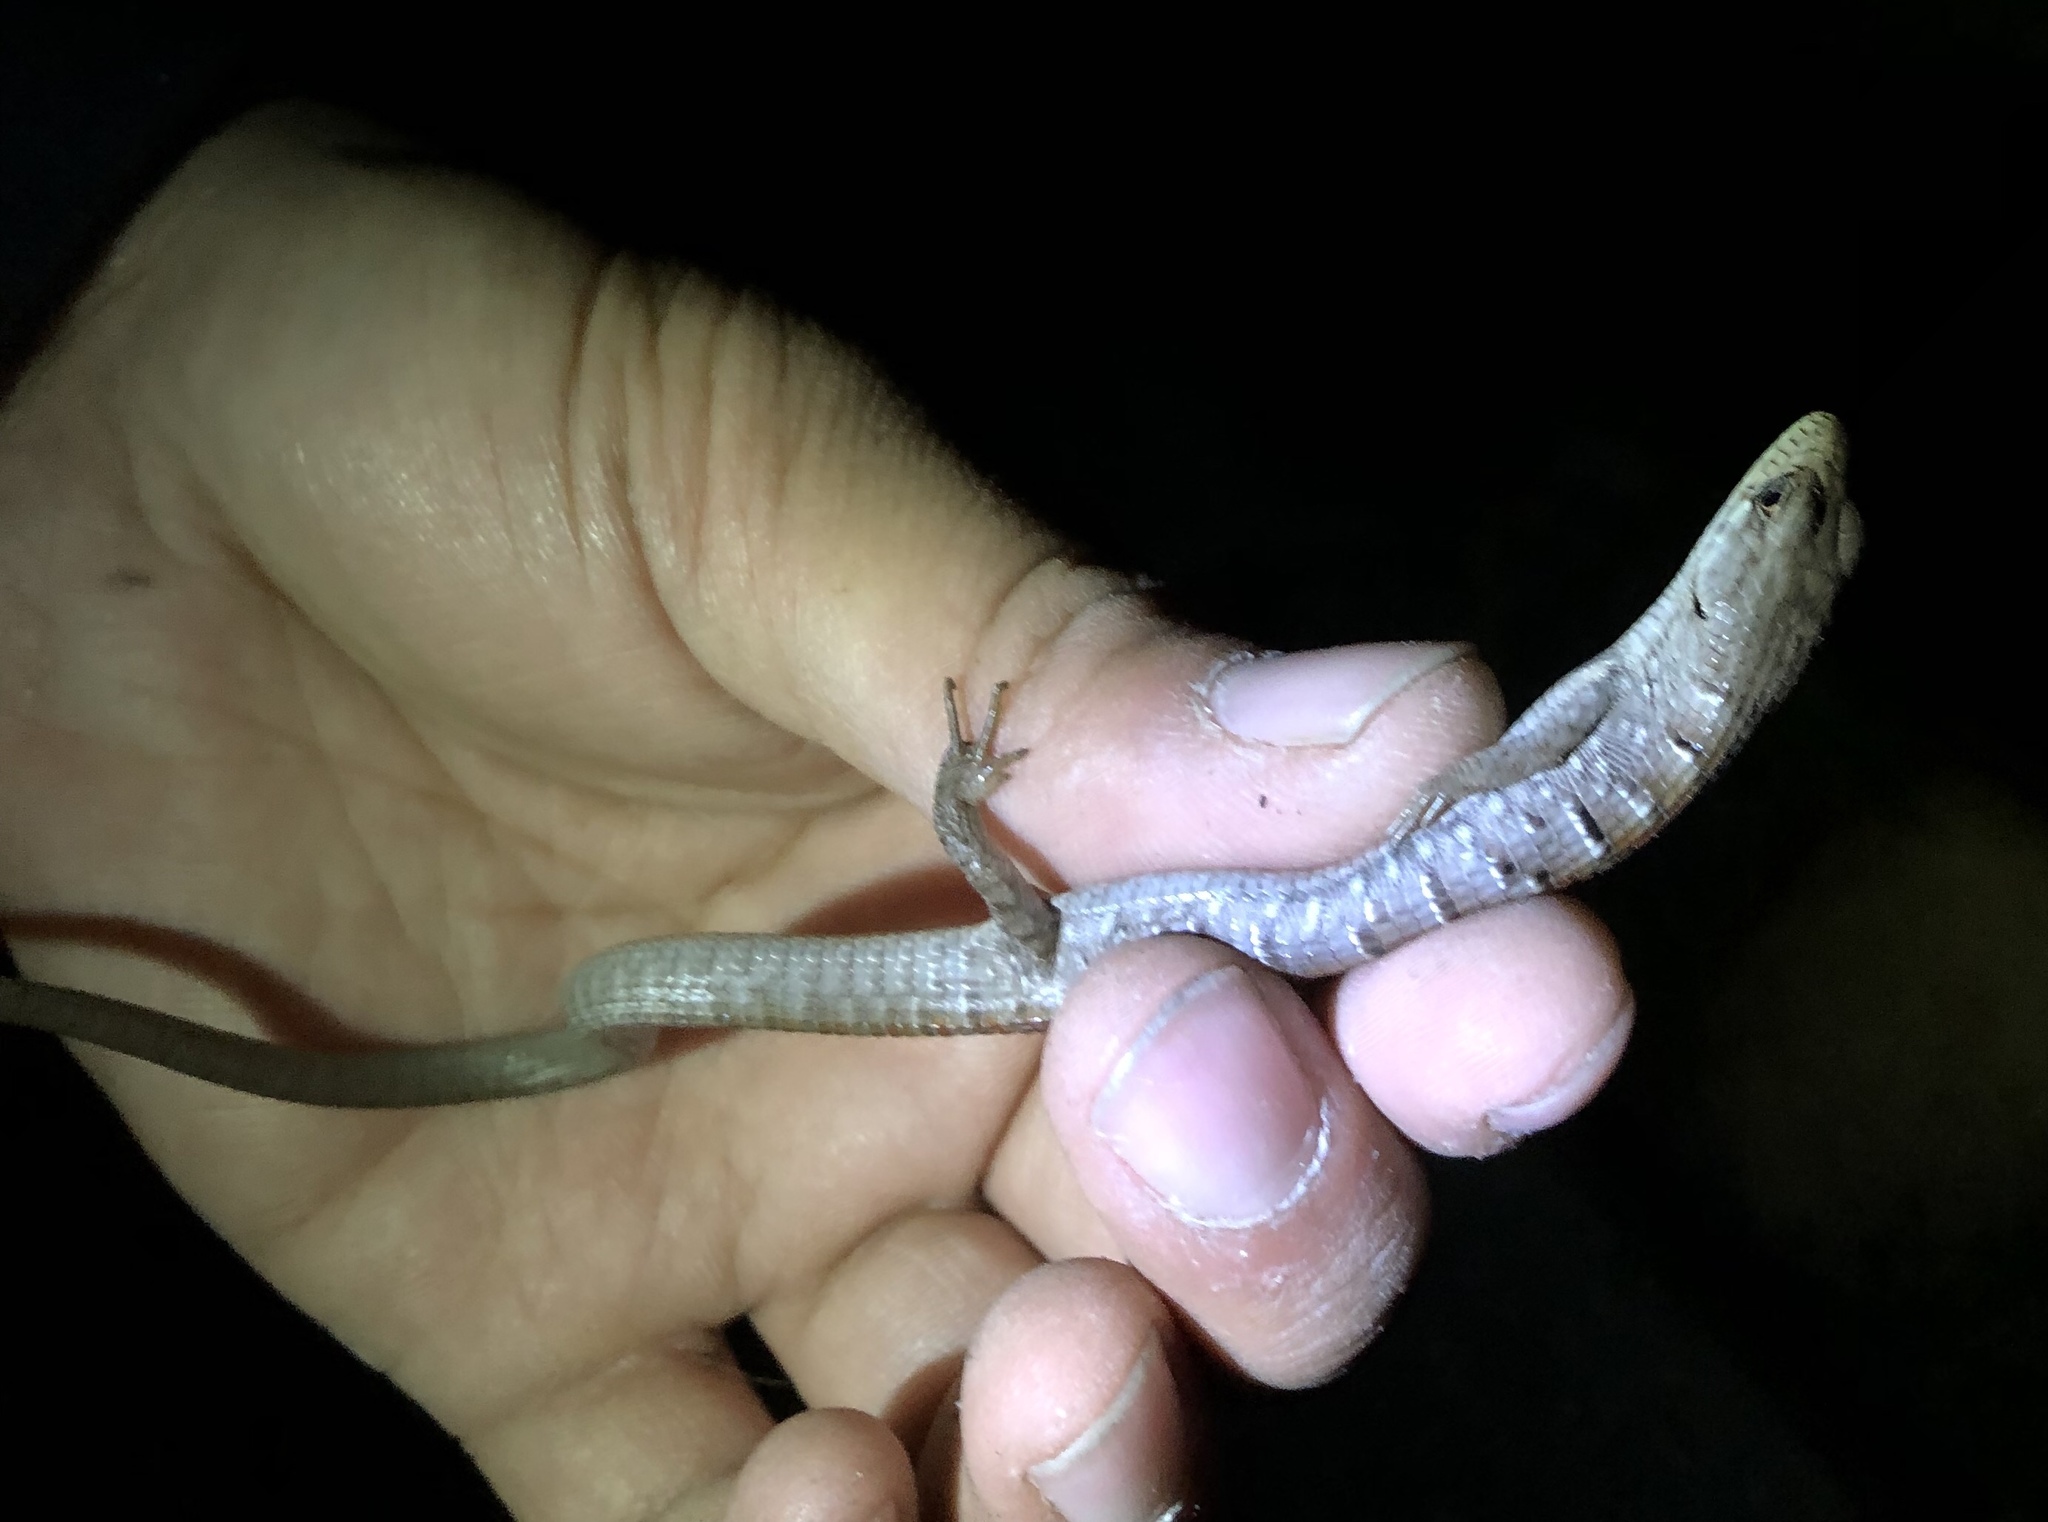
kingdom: Animalia
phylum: Chordata
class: Squamata
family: Anguidae
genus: Elgaria
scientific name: Elgaria multicarinata
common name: Southern alligator lizard
